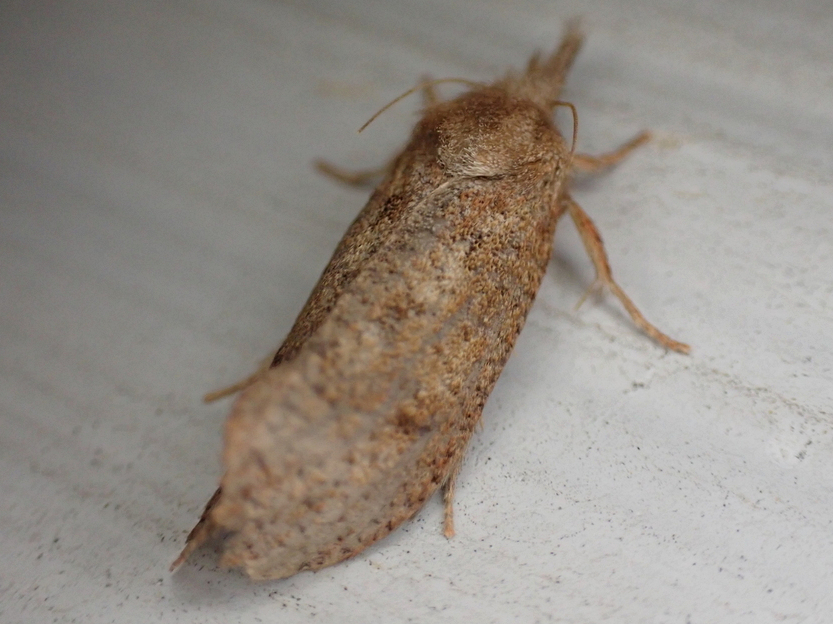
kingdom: Animalia
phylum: Arthropoda
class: Insecta
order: Lepidoptera
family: Tineidae
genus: Acrolophus
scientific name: Acrolophus plumifrontella
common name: Eastern grass tubeworm moth
